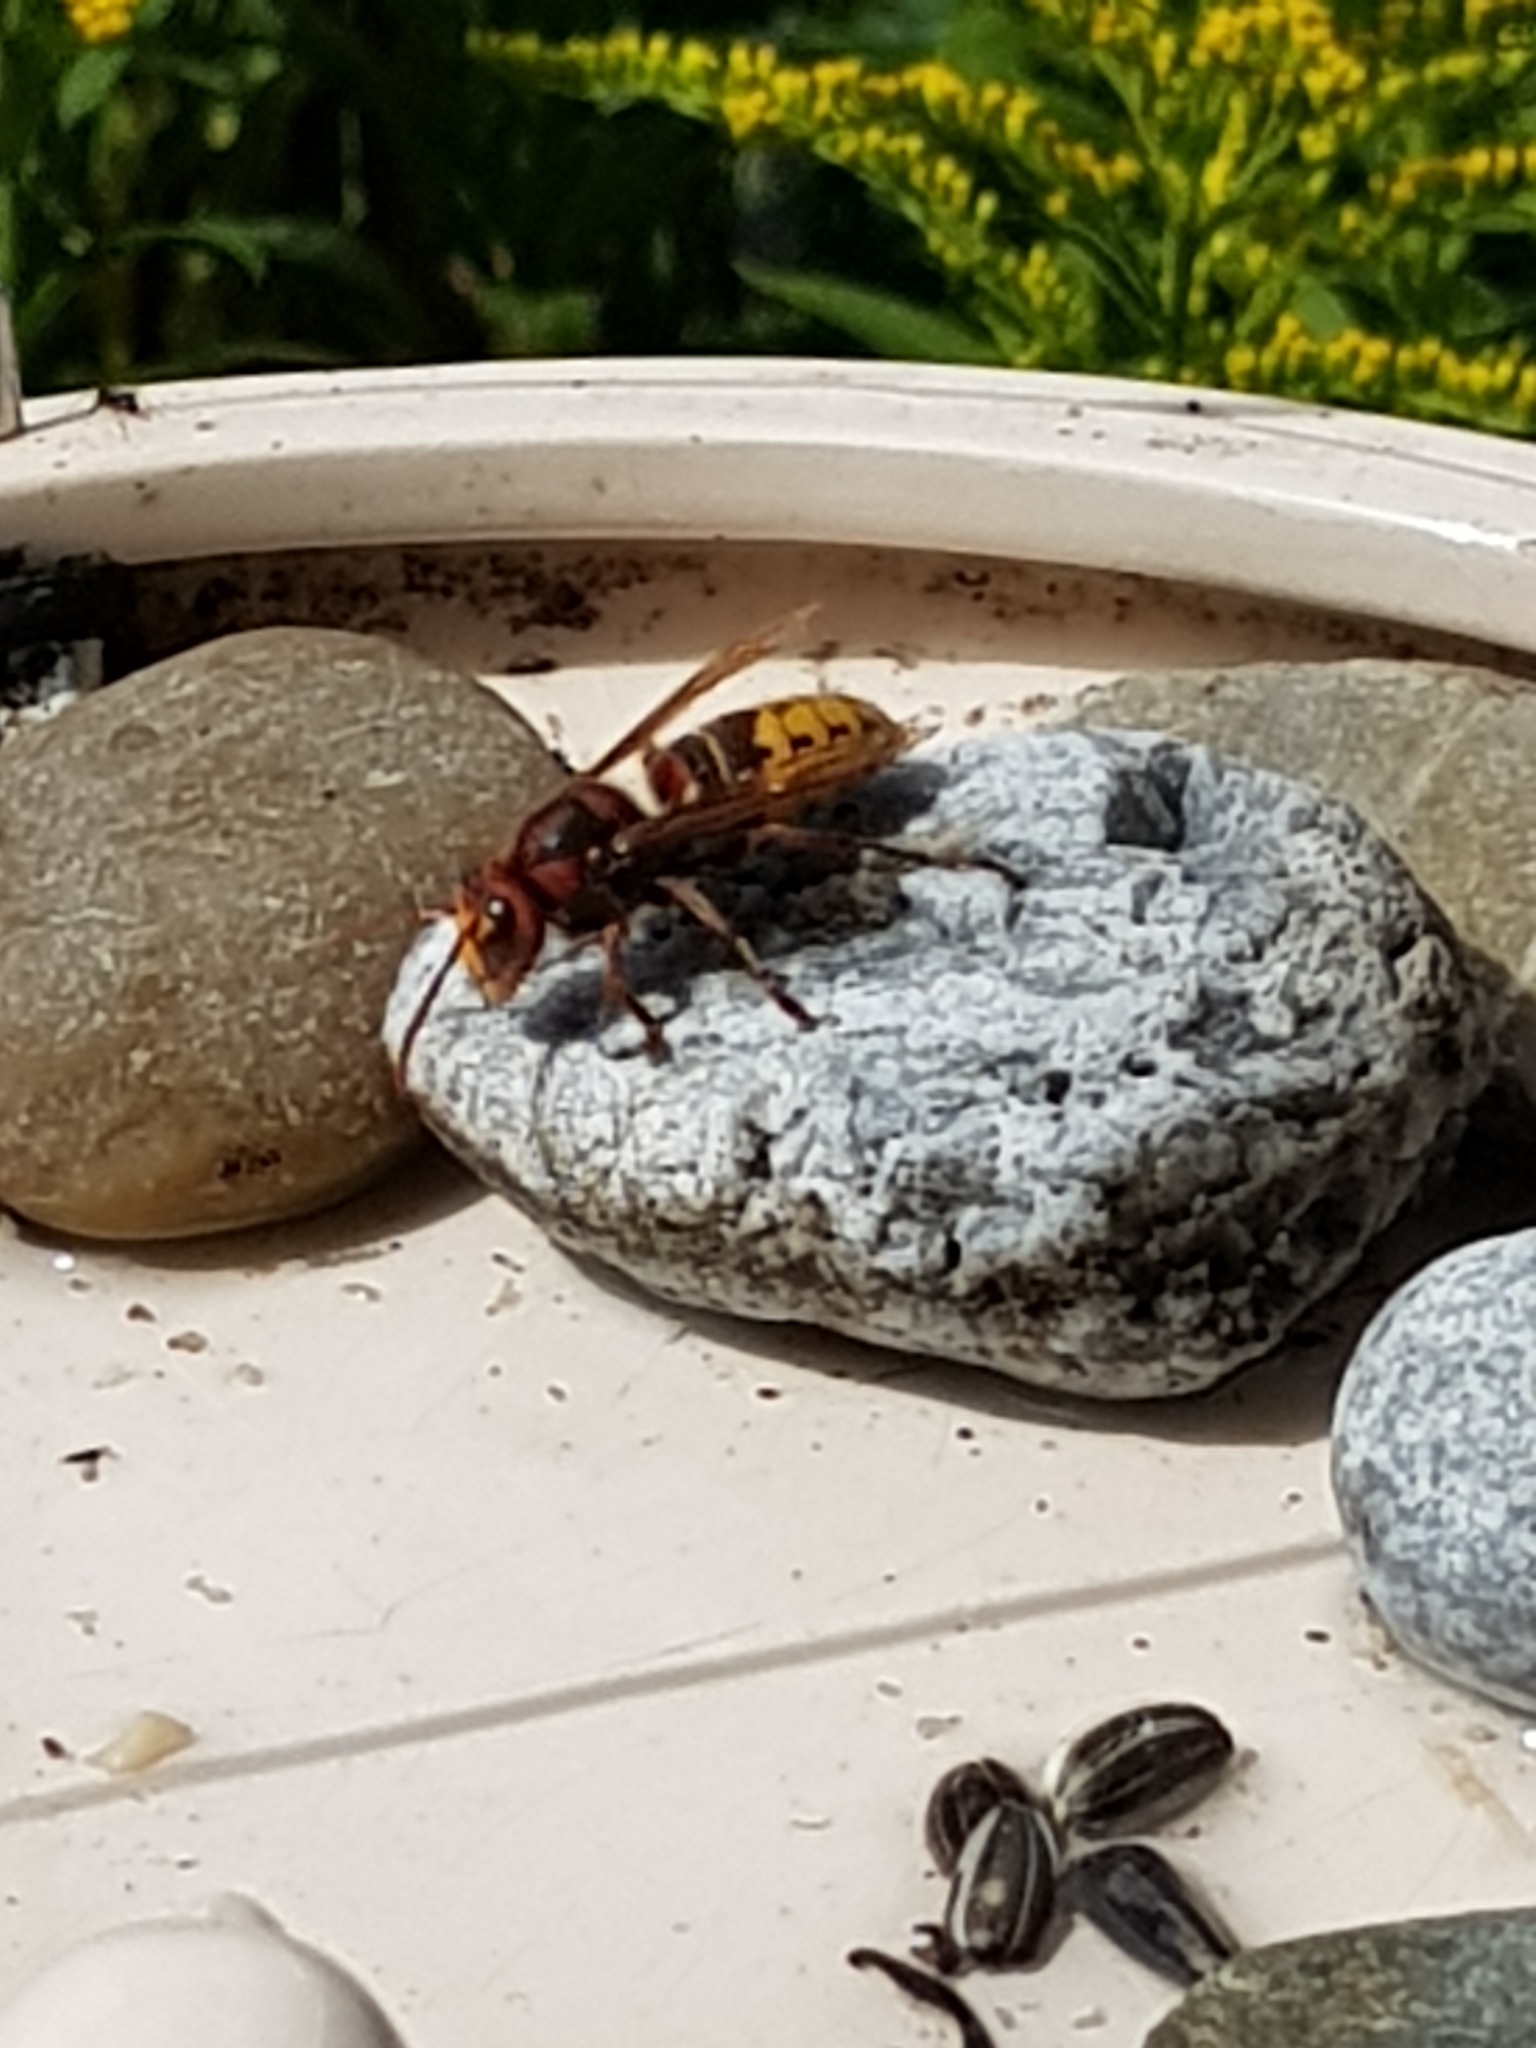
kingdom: Animalia
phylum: Arthropoda
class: Insecta
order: Hymenoptera
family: Vespidae
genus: Vespa
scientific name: Vespa crabro
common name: Hornet
